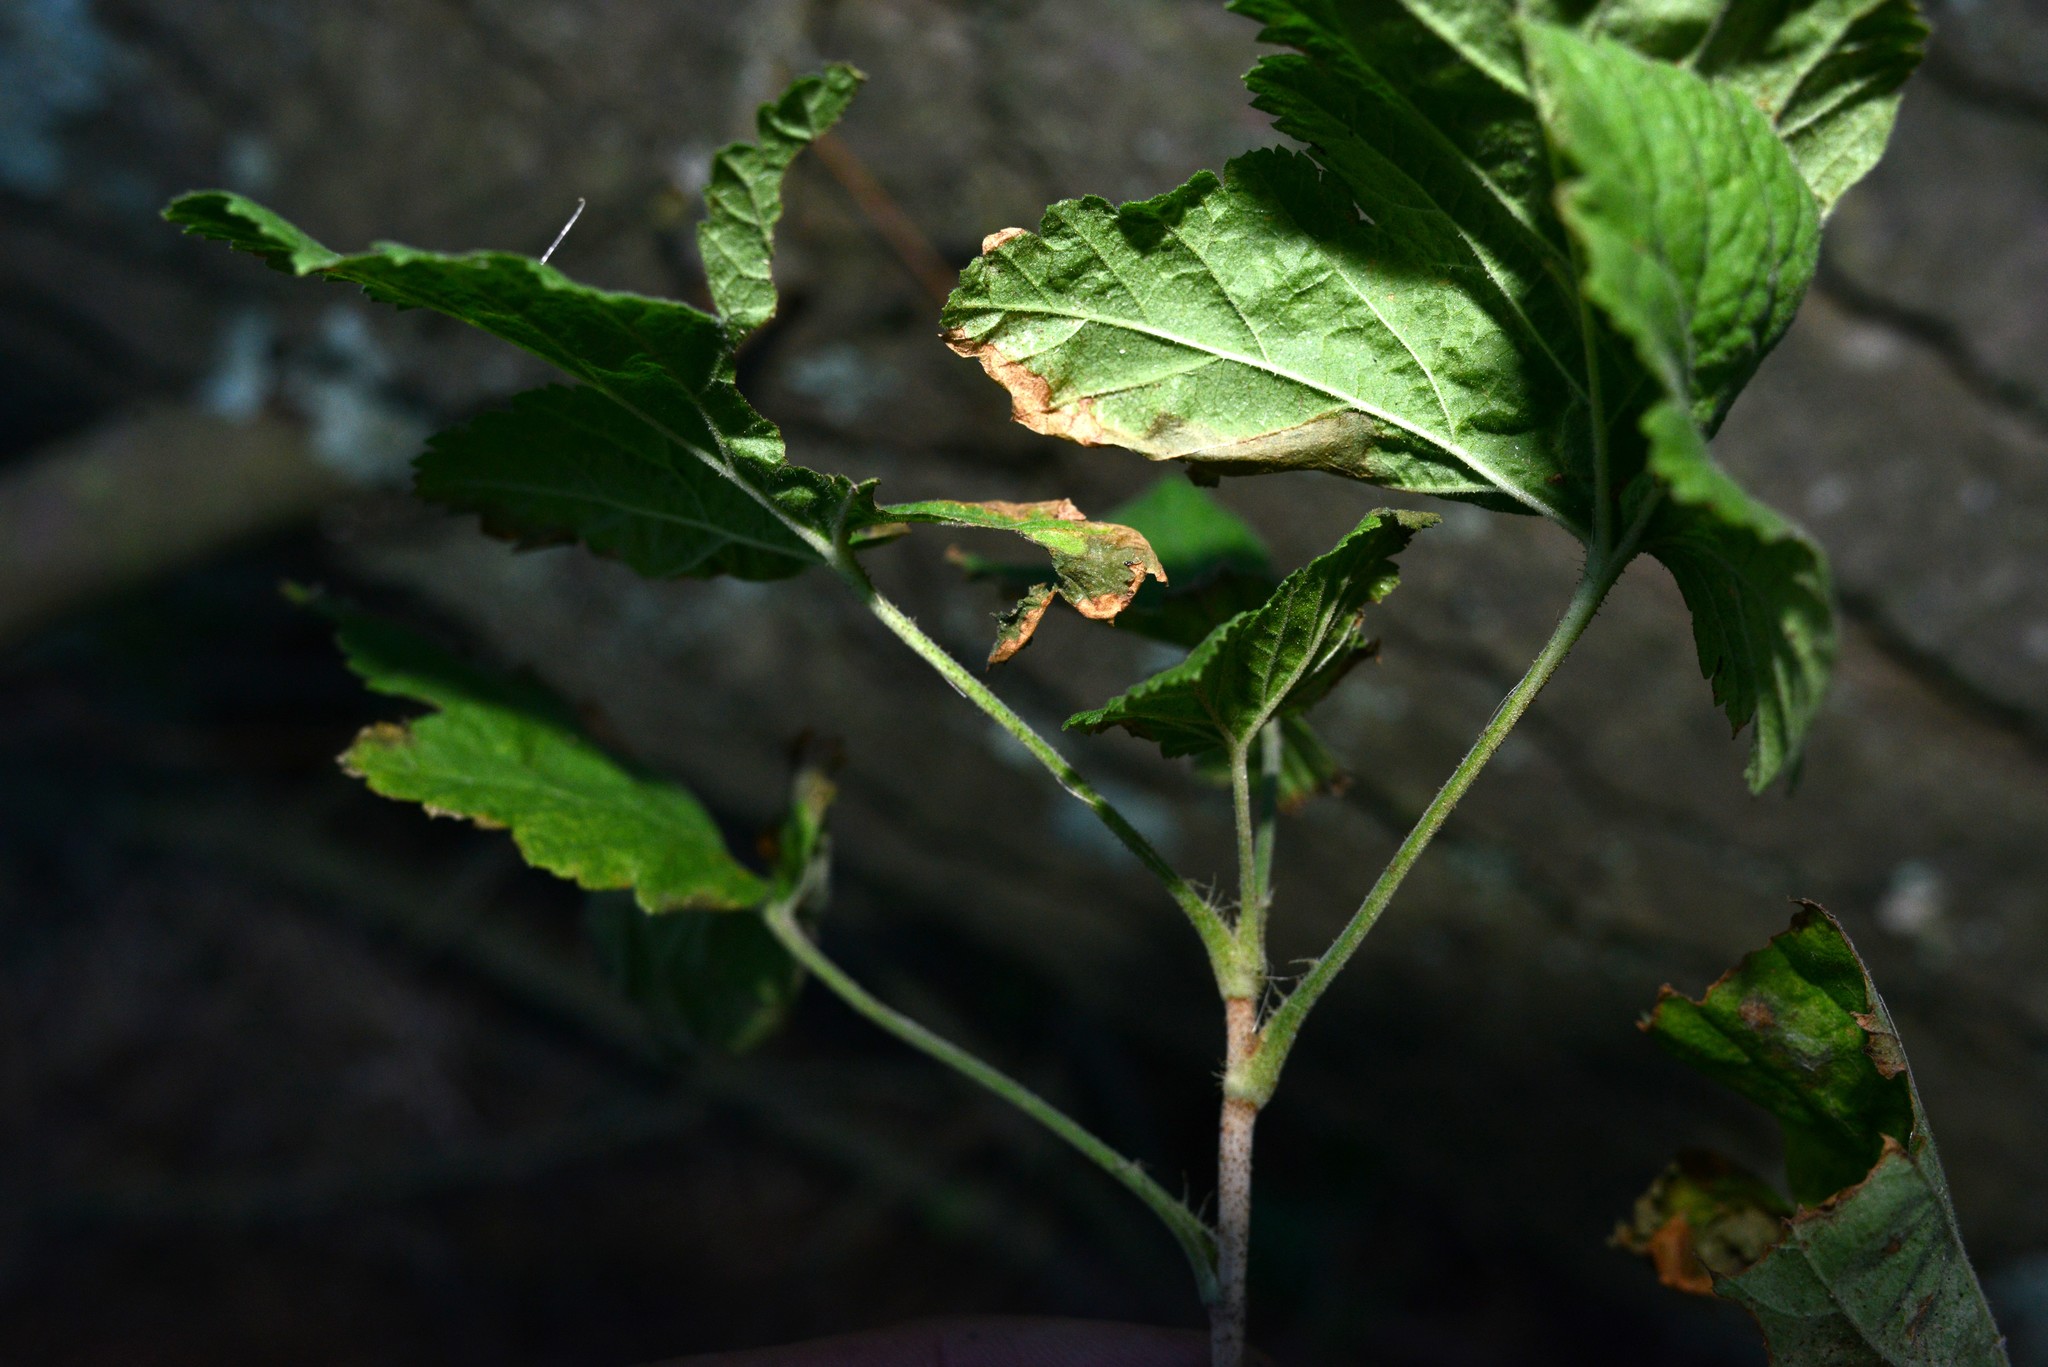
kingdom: Plantae
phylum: Tracheophyta
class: Magnoliopsida
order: Saxifragales
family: Grossulariaceae
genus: Ribes
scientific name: Ribes sanguineum
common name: Flowering currant
